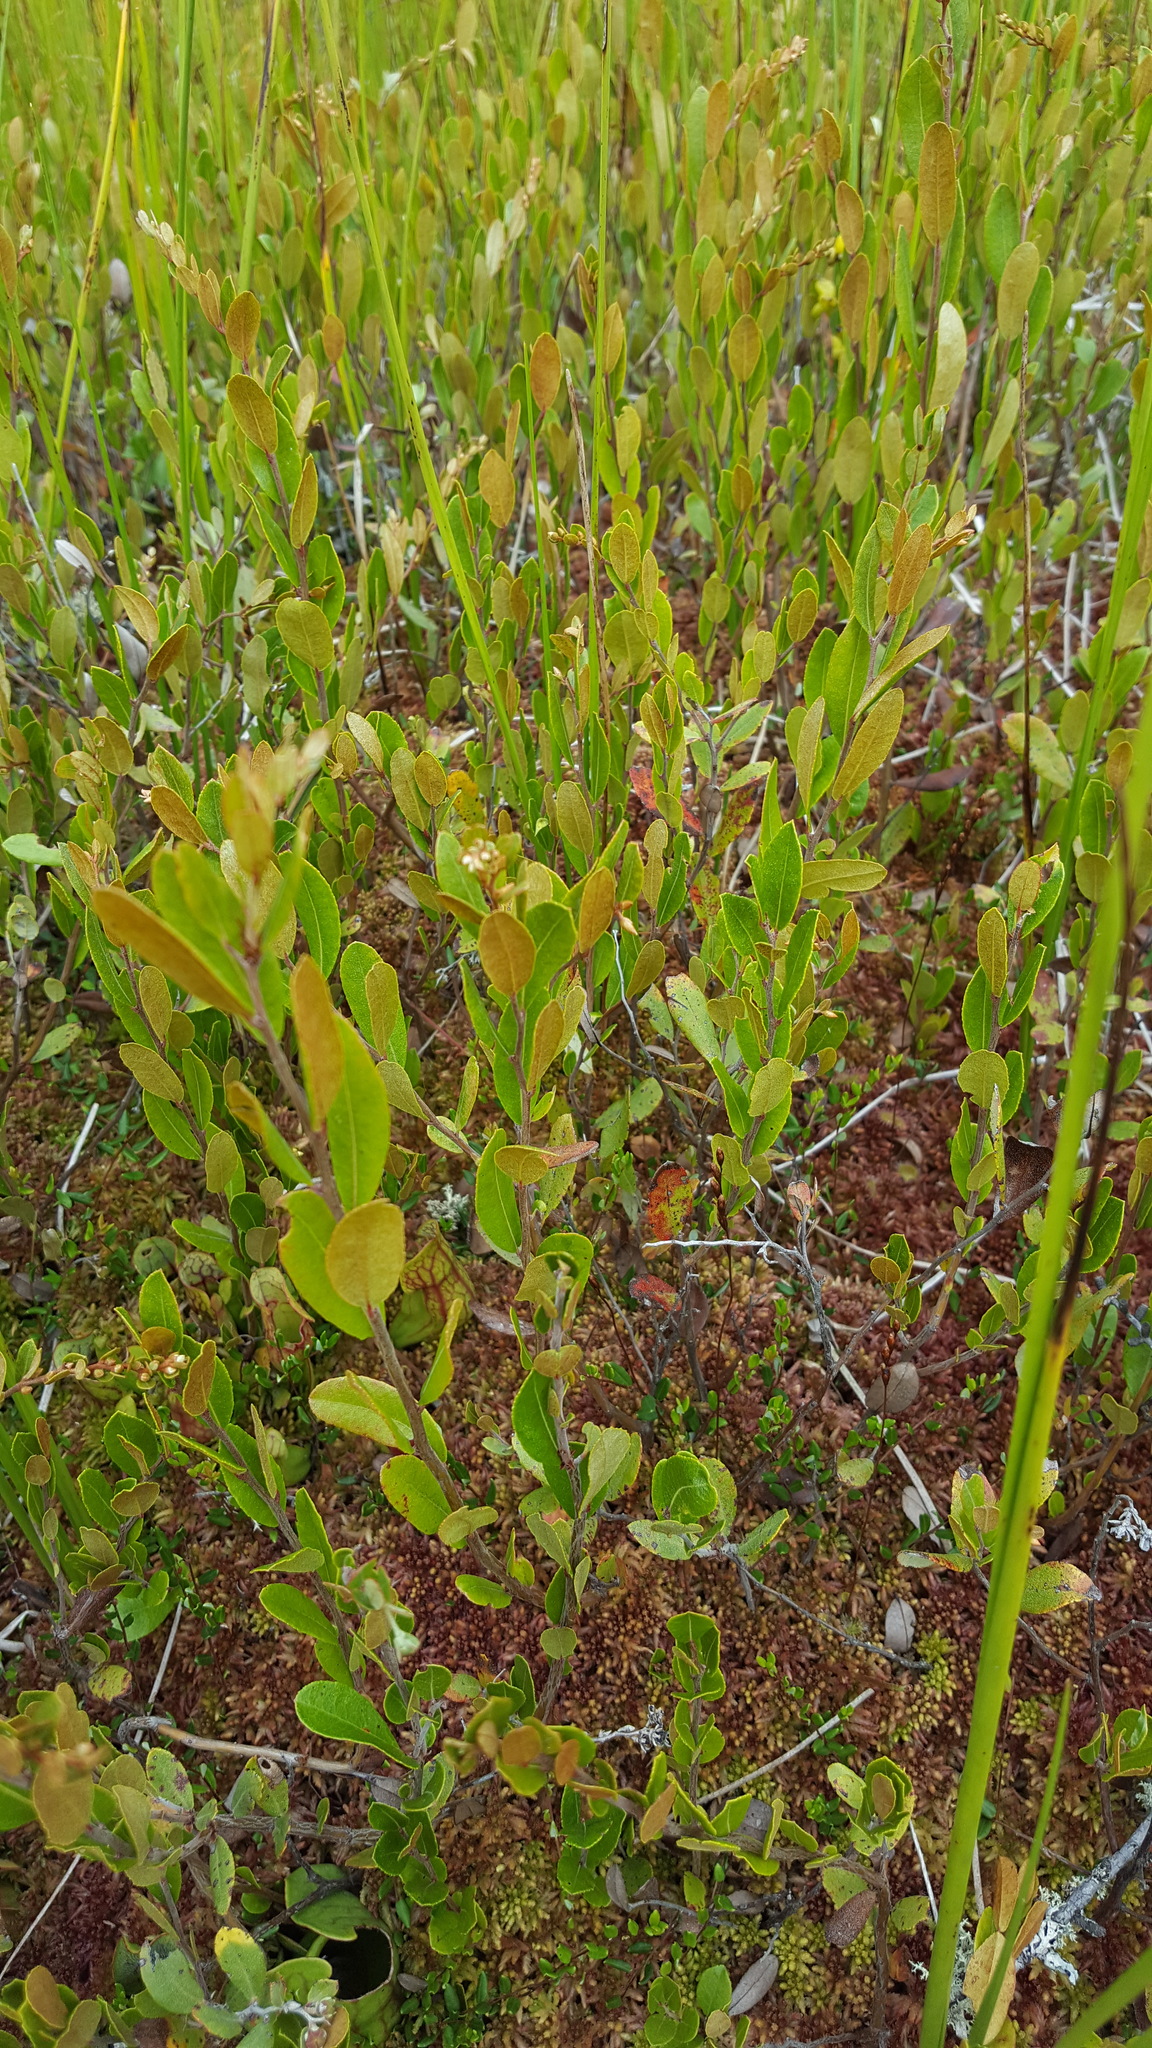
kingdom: Plantae
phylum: Tracheophyta
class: Magnoliopsida
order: Ericales
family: Ericaceae
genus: Chamaedaphne
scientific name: Chamaedaphne calyculata
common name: Leatherleaf
